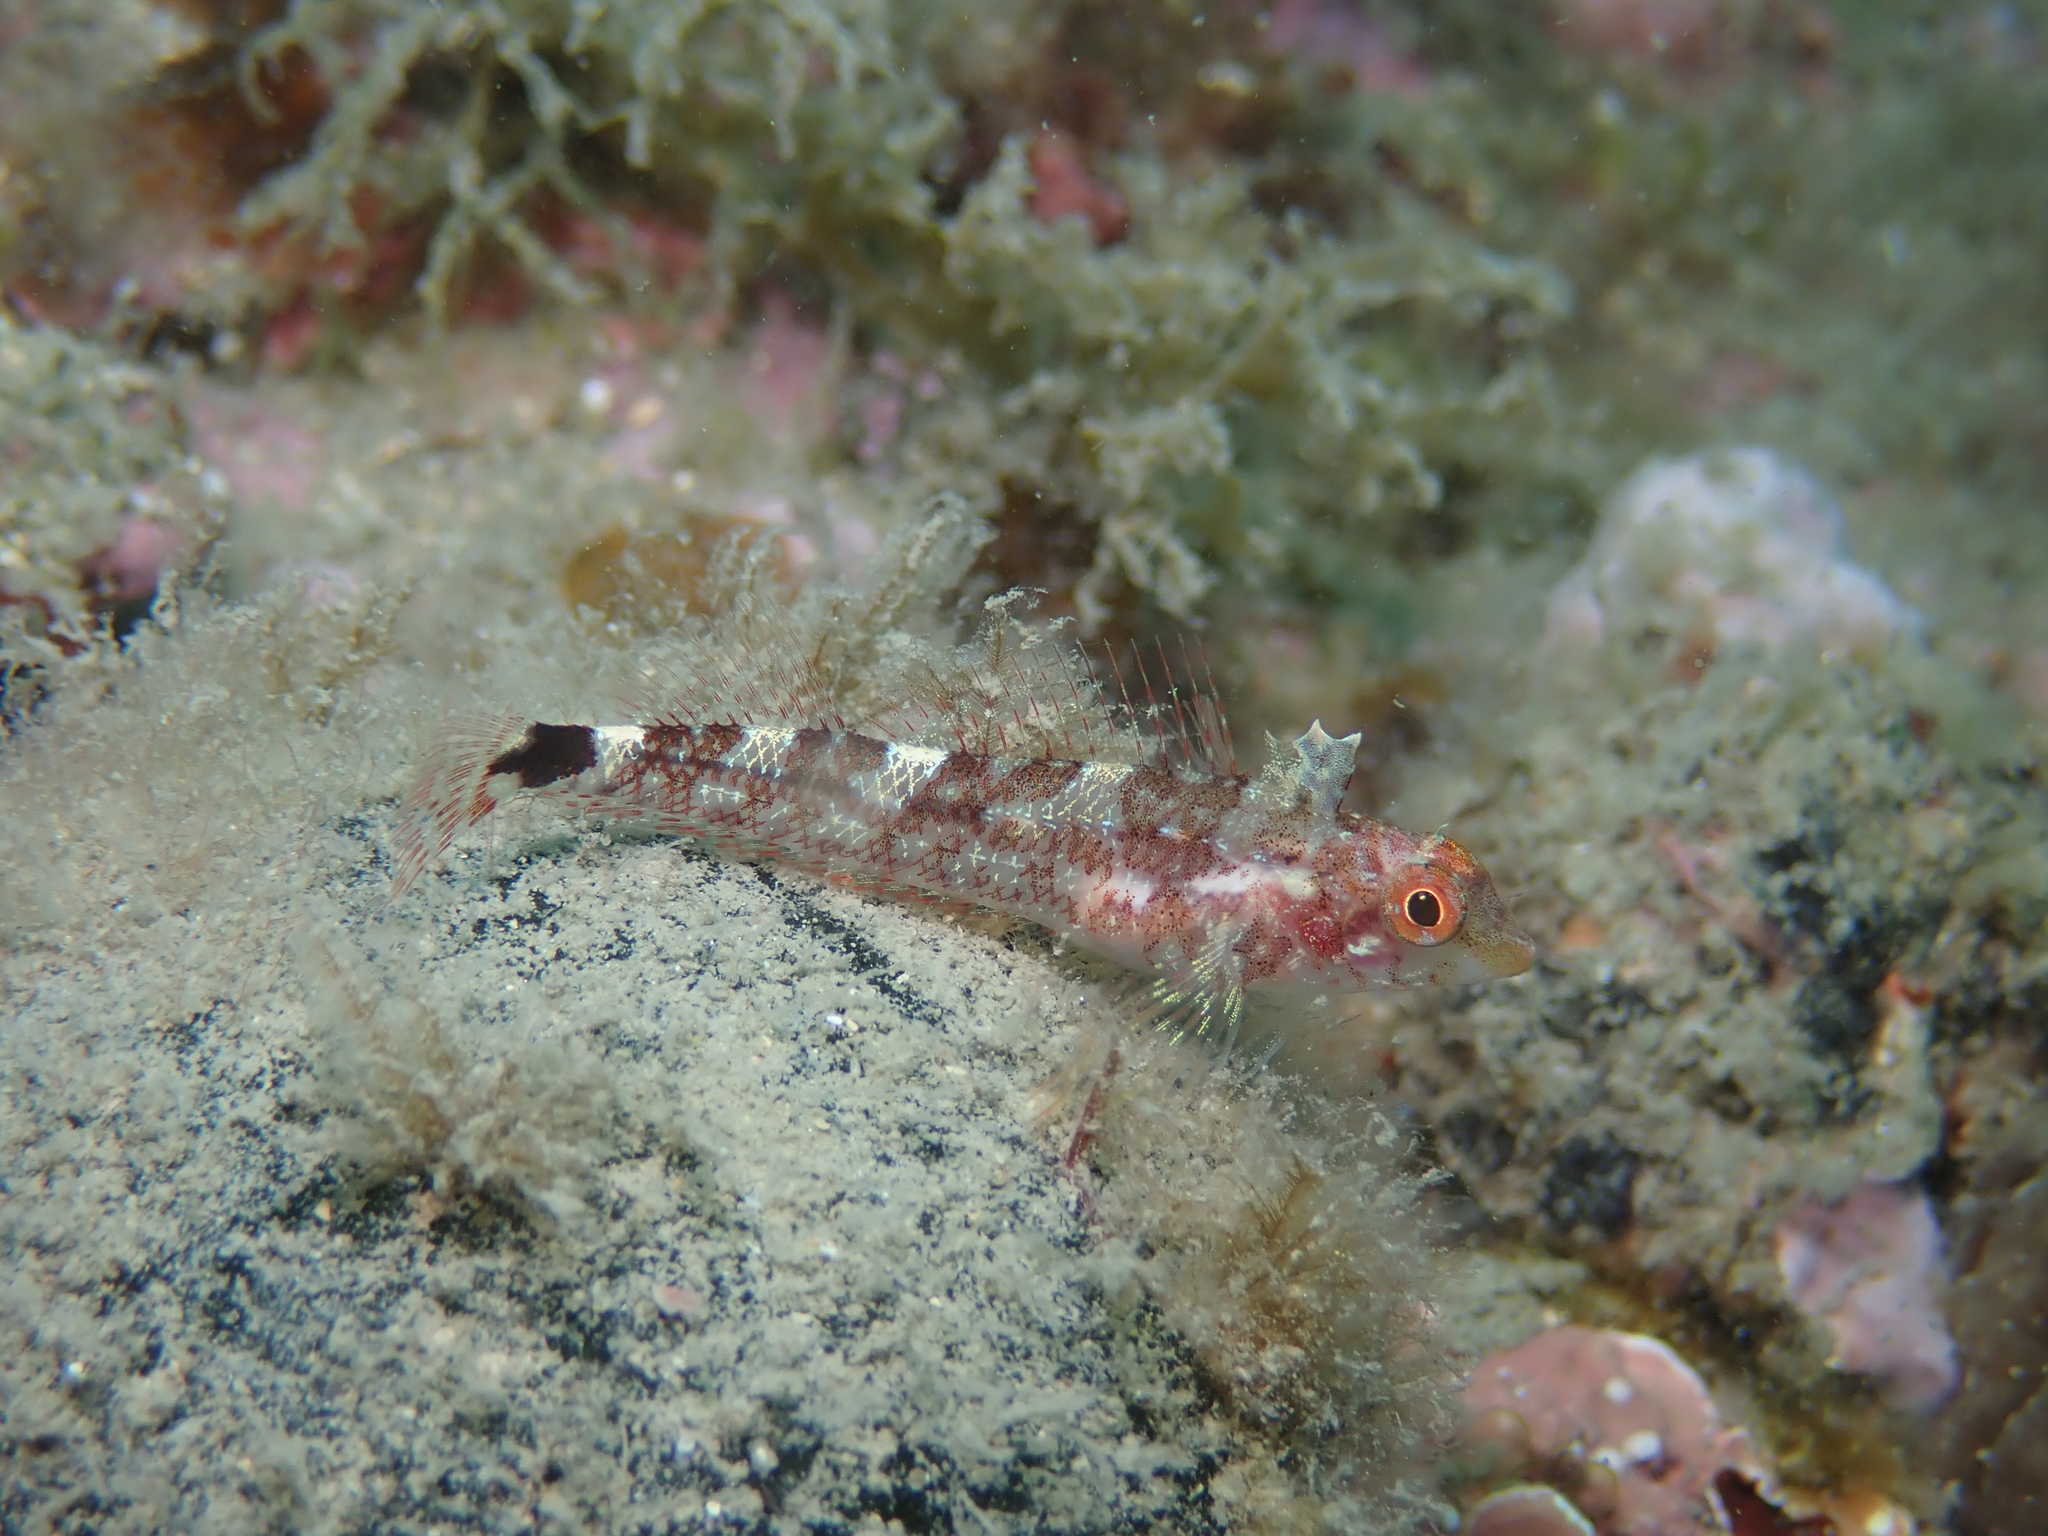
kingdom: Animalia
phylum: Chordata
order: Perciformes
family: Tripterygiidae
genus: Tripterygion
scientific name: Tripterygion delaisi
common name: Black-face blenny
